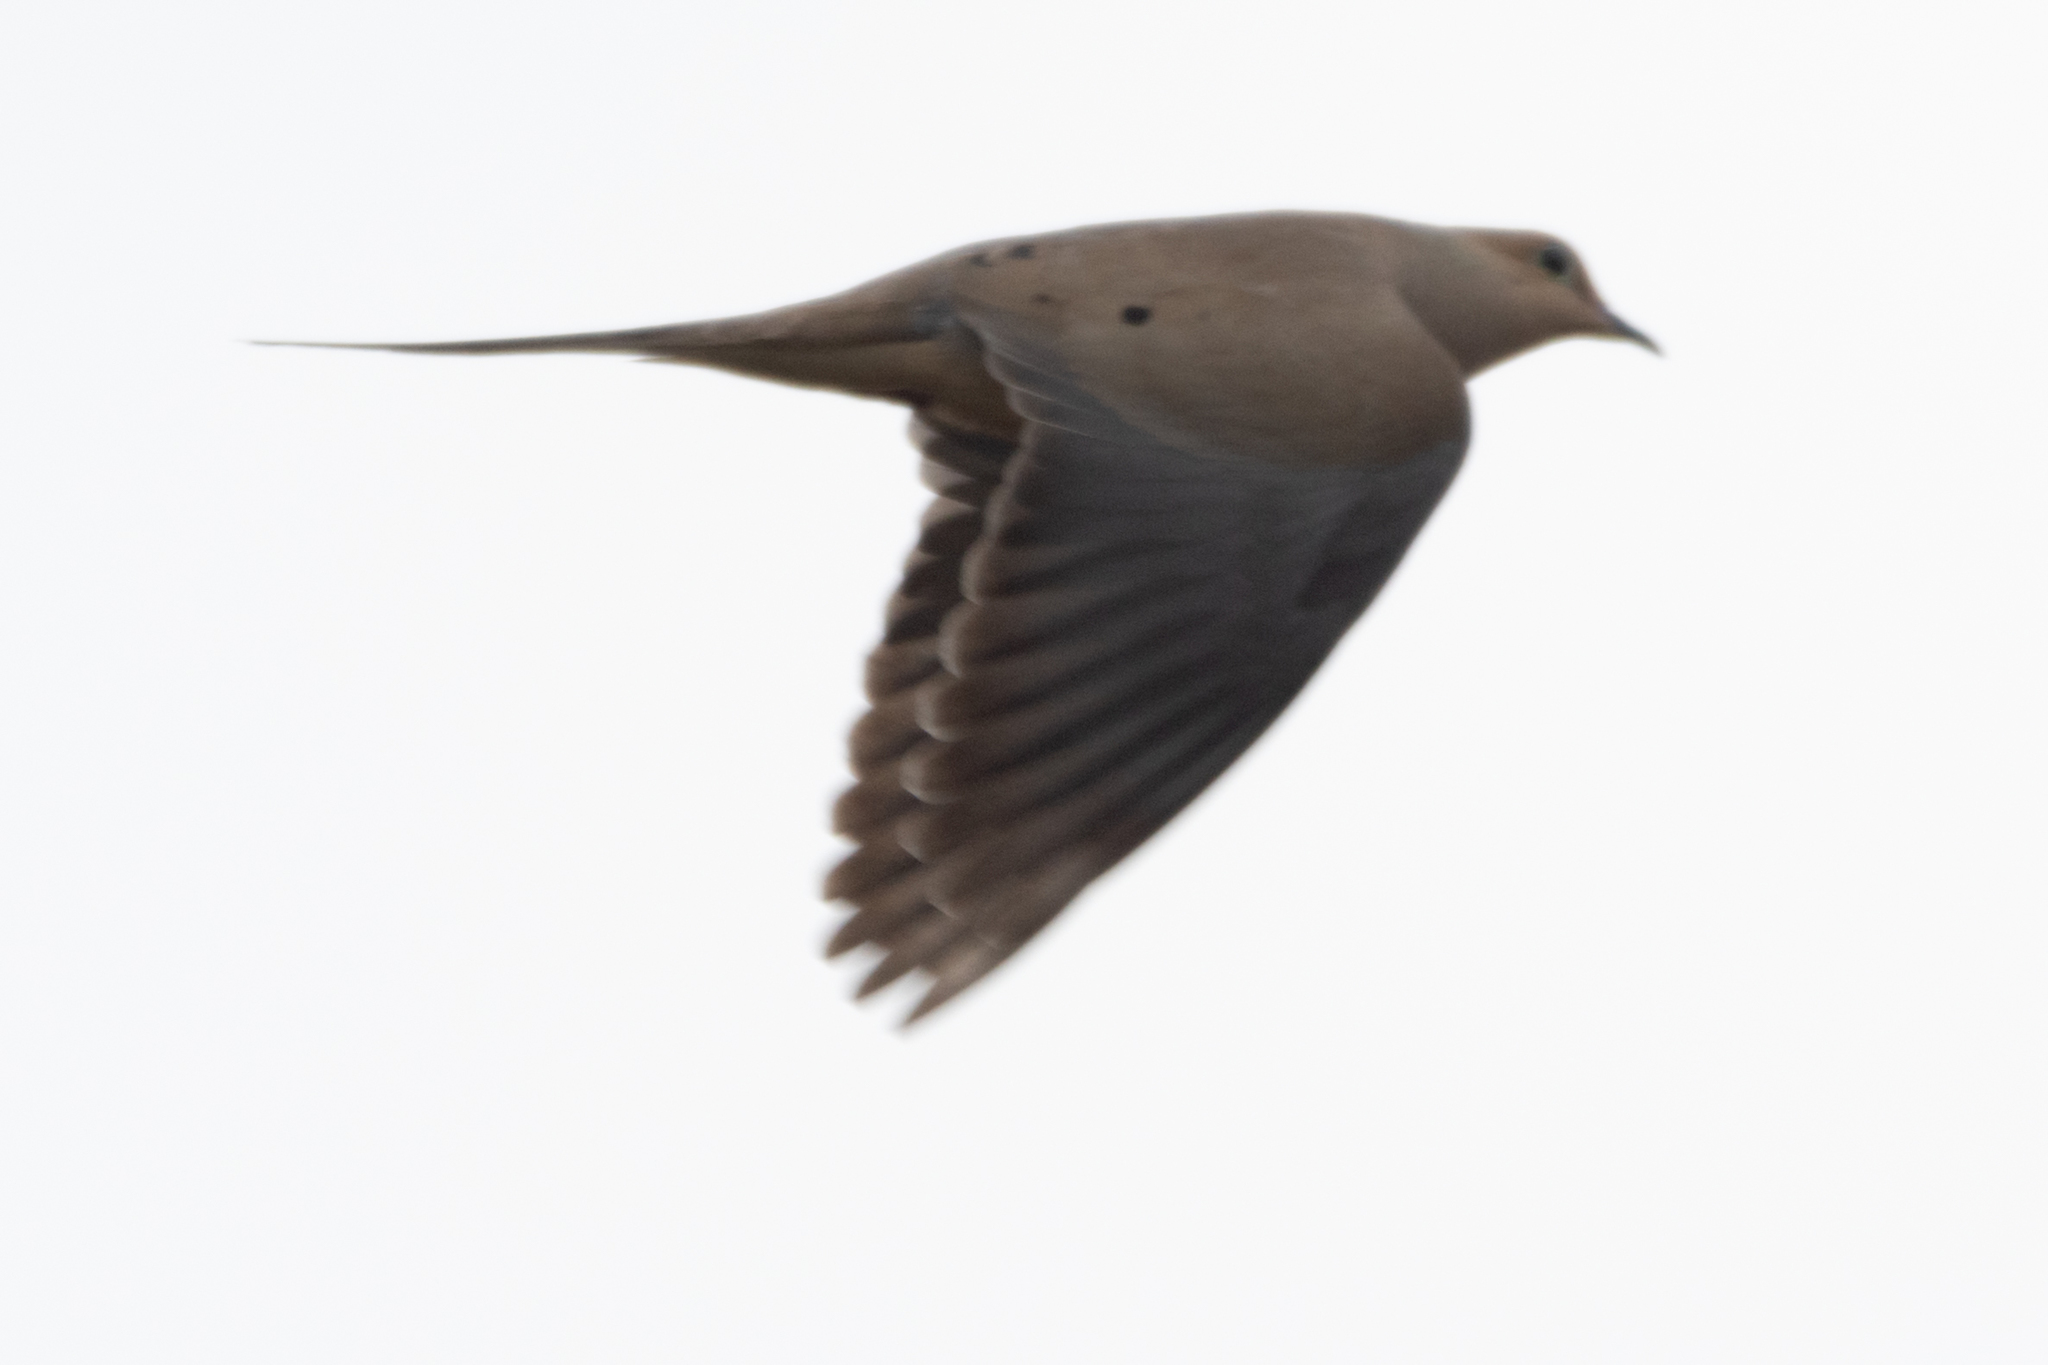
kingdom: Animalia
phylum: Chordata
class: Aves
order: Columbiformes
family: Columbidae
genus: Zenaida
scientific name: Zenaida macroura
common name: Mourning dove
